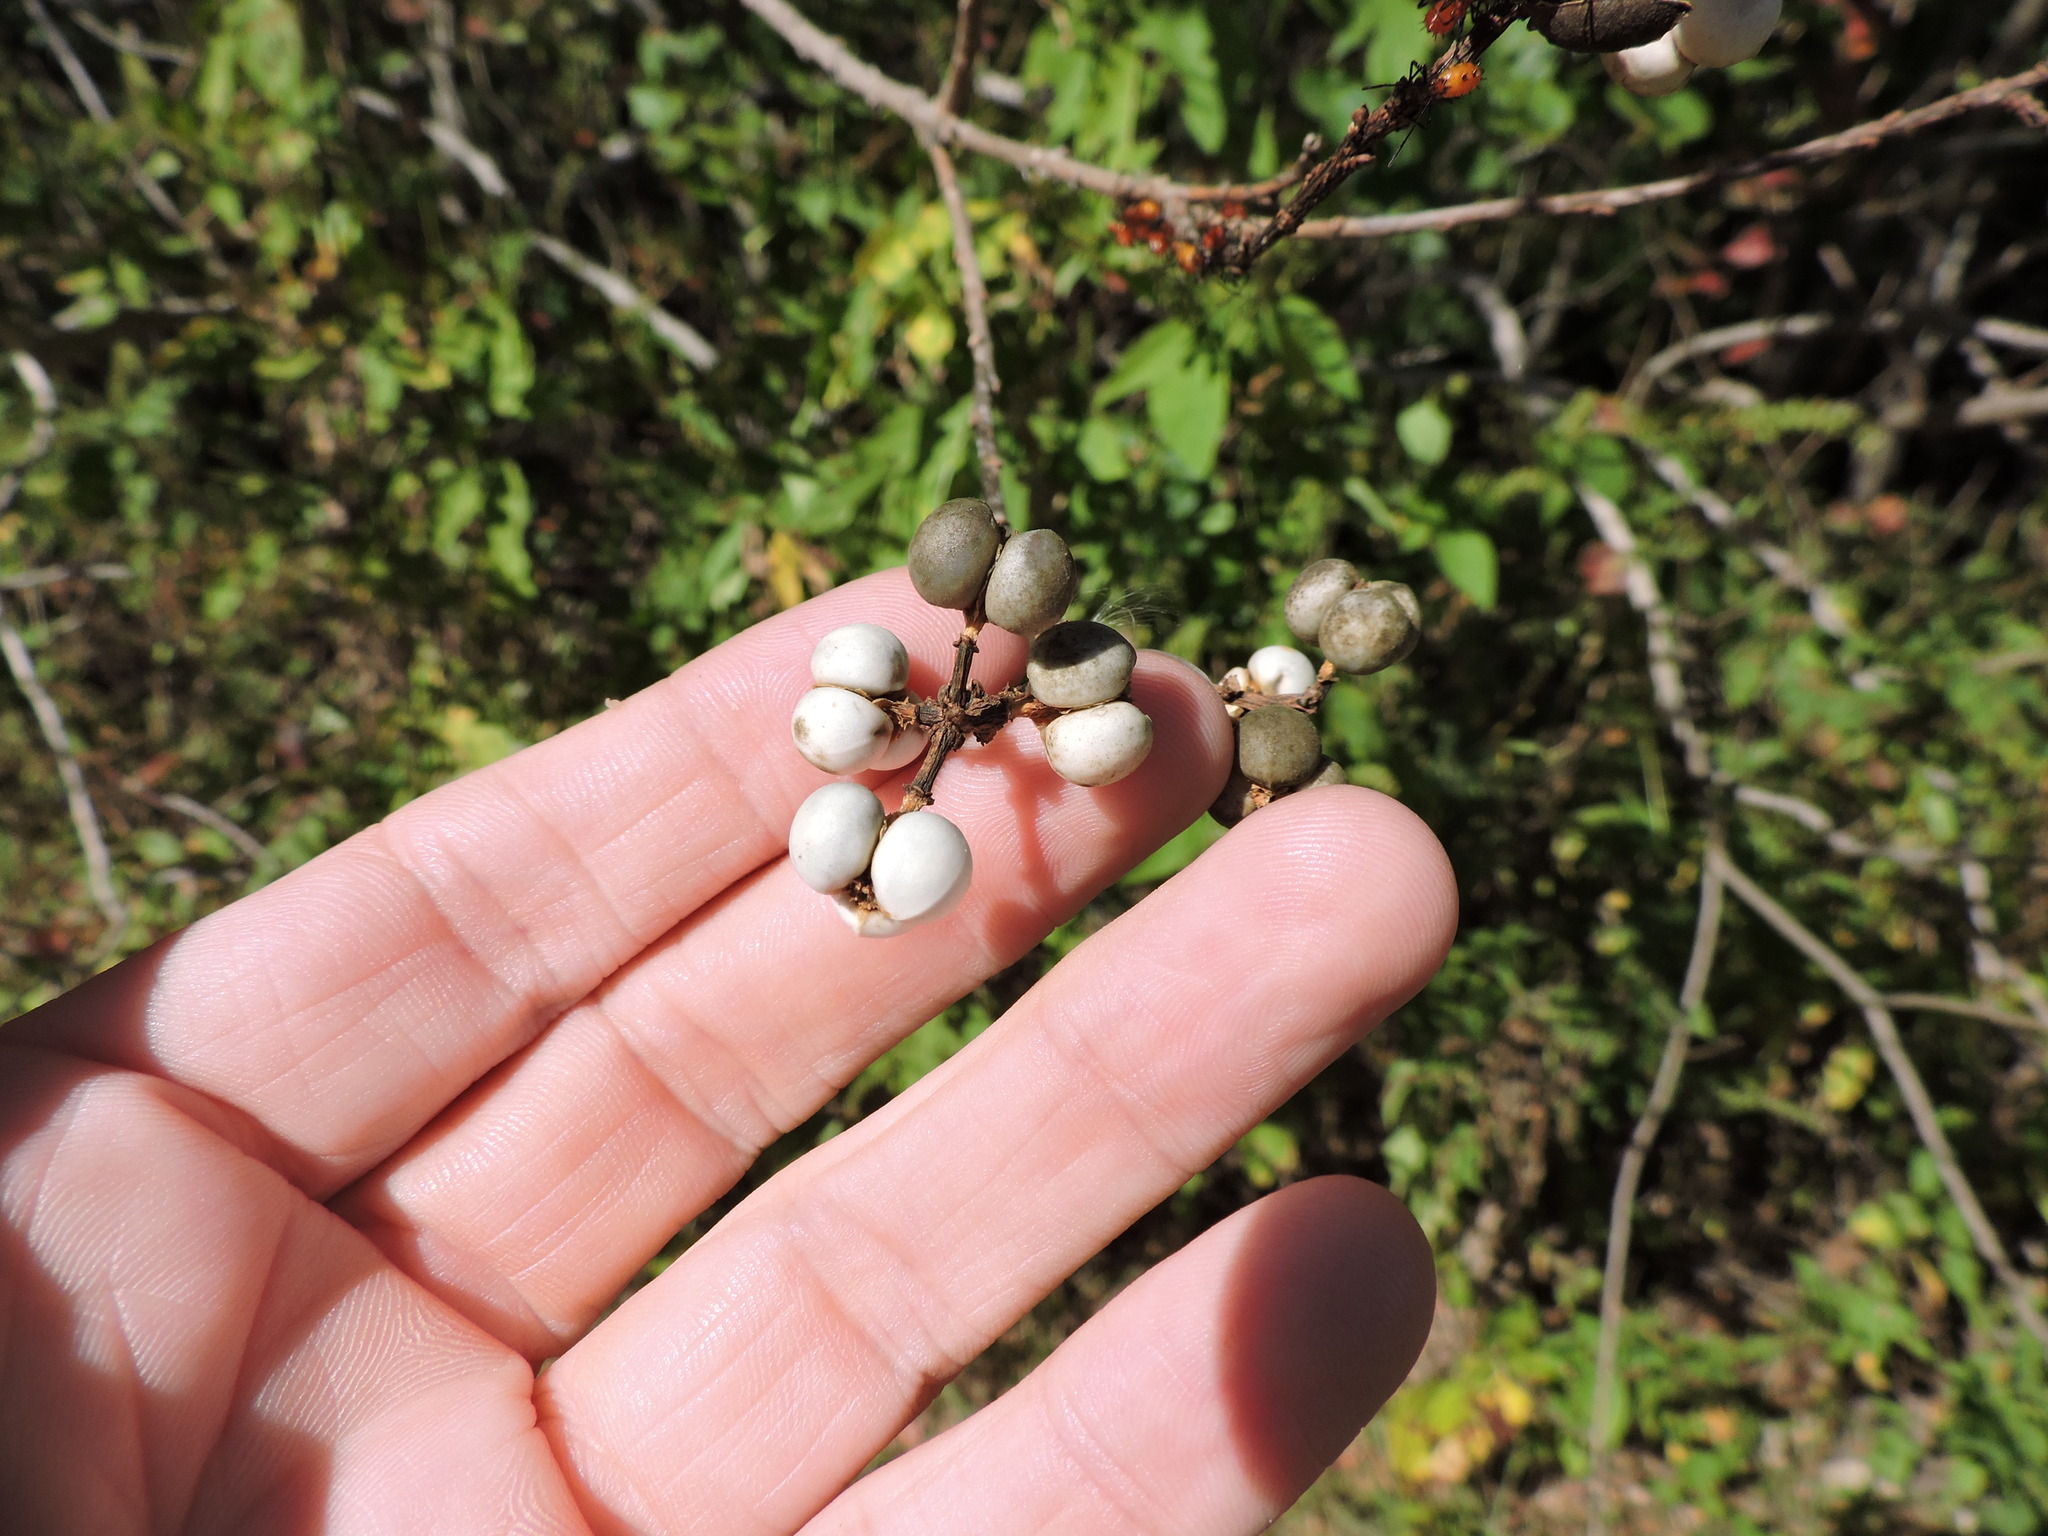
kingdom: Plantae
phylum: Tracheophyta
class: Magnoliopsida
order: Malpighiales
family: Euphorbiaceae
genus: Triadica
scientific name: Triadica sebifera
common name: Chinese tallow
